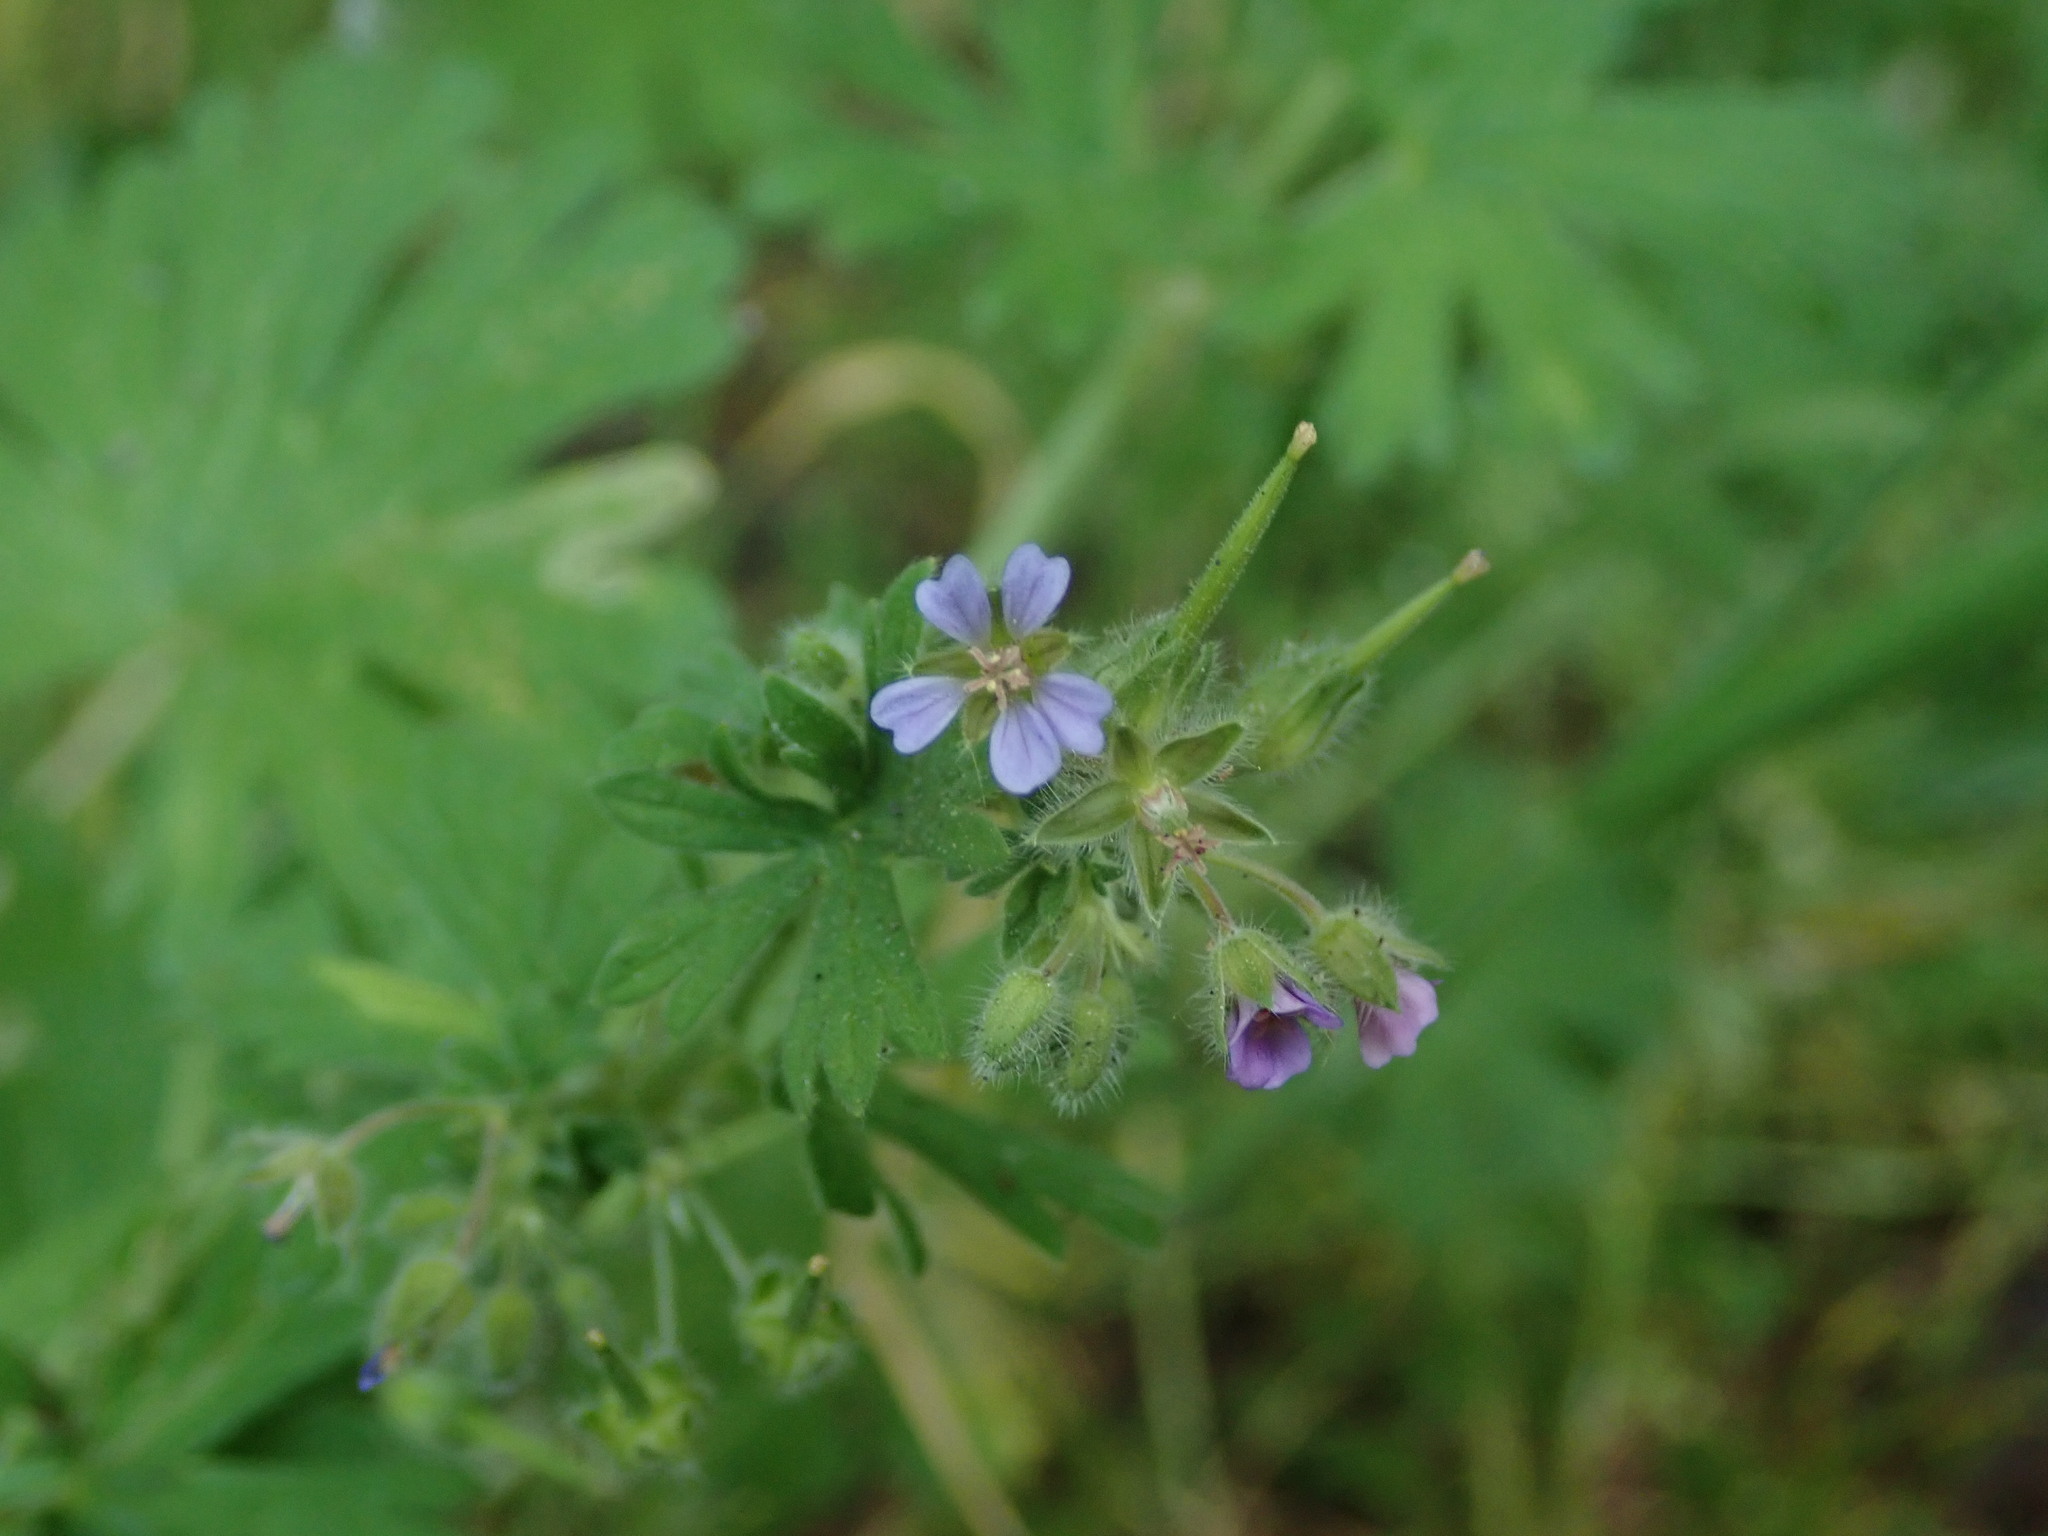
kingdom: Plantae
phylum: Tracheophyta
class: Magnoliopsida
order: Geraniales
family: Geraniaceae
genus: Geranium
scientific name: Geranium pusillum
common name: Small geranium
